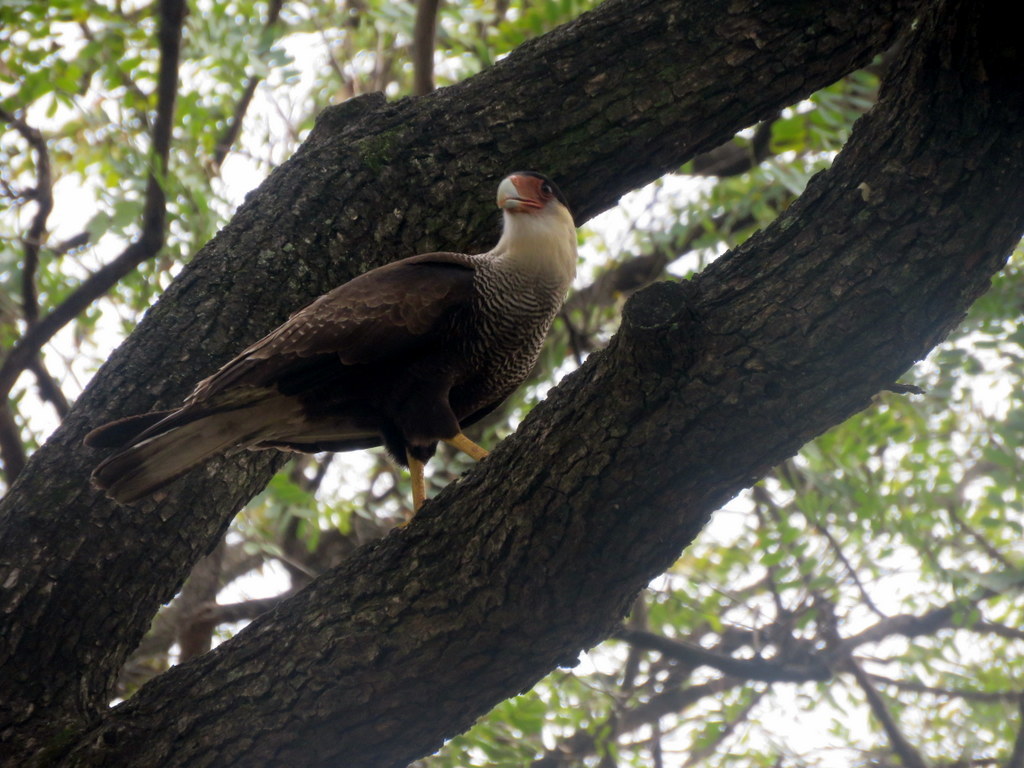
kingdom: Animalia
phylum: Chordata
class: Aves
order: Falconiformes
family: Falconidae
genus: Caracara
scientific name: Caracara plancus
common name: Southern caracara
